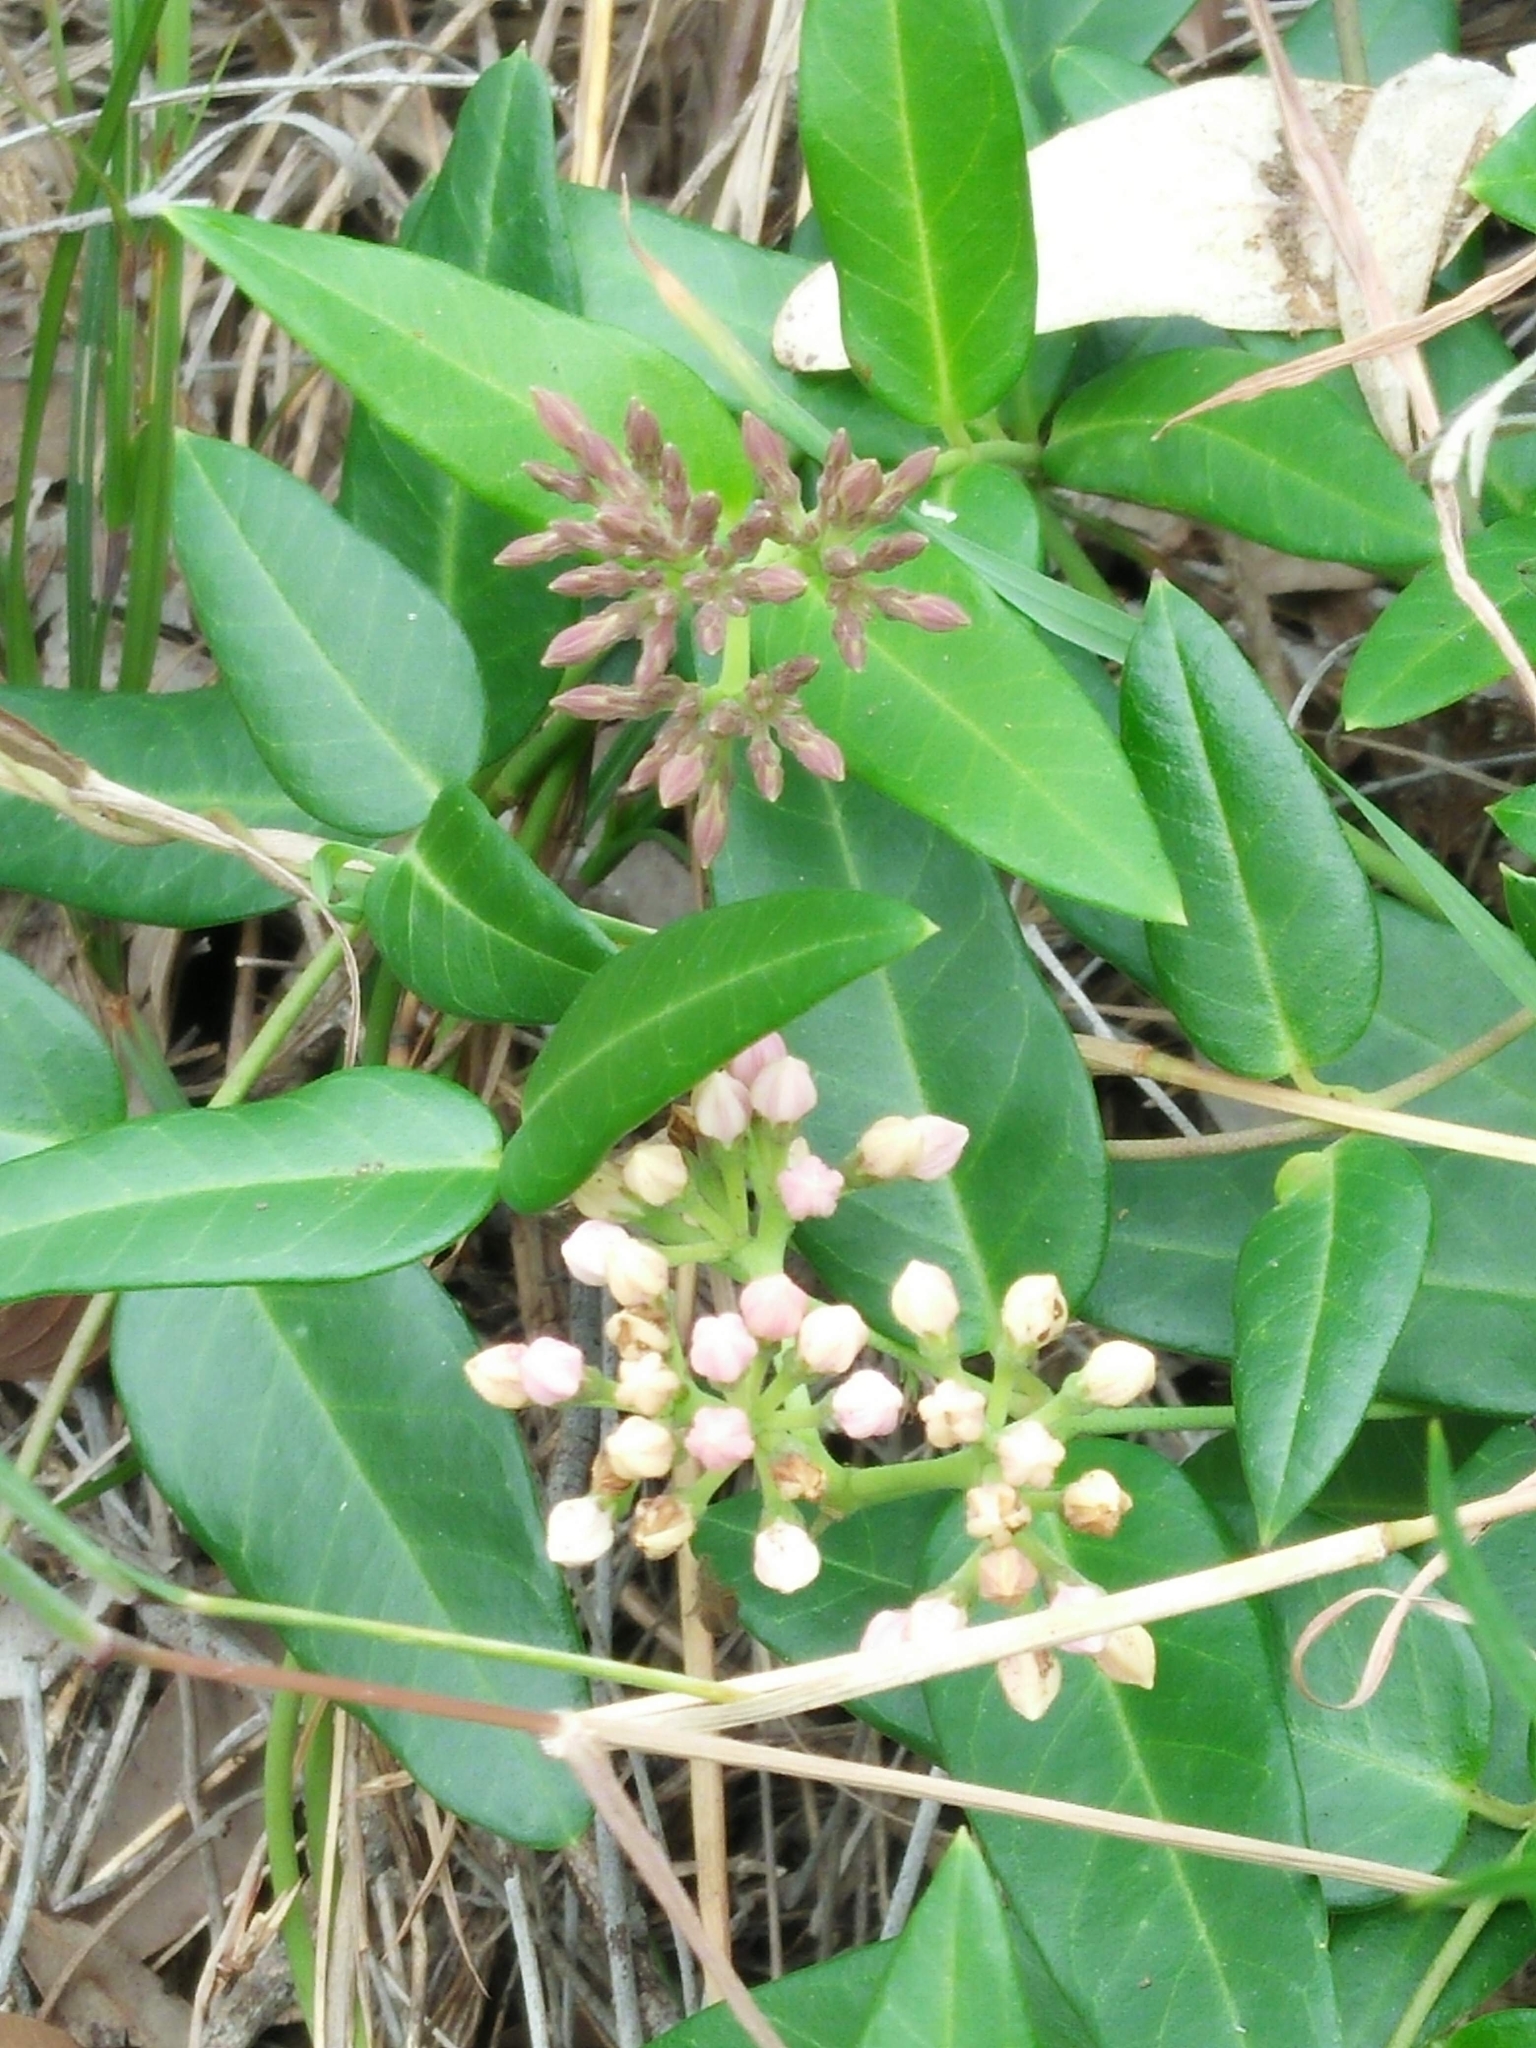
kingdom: Plantae
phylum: Tracheophyta
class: Magnoliopsida
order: Gentianales
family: Apocynaceae
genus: Parsonsia
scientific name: Parsonsia lanceolata
